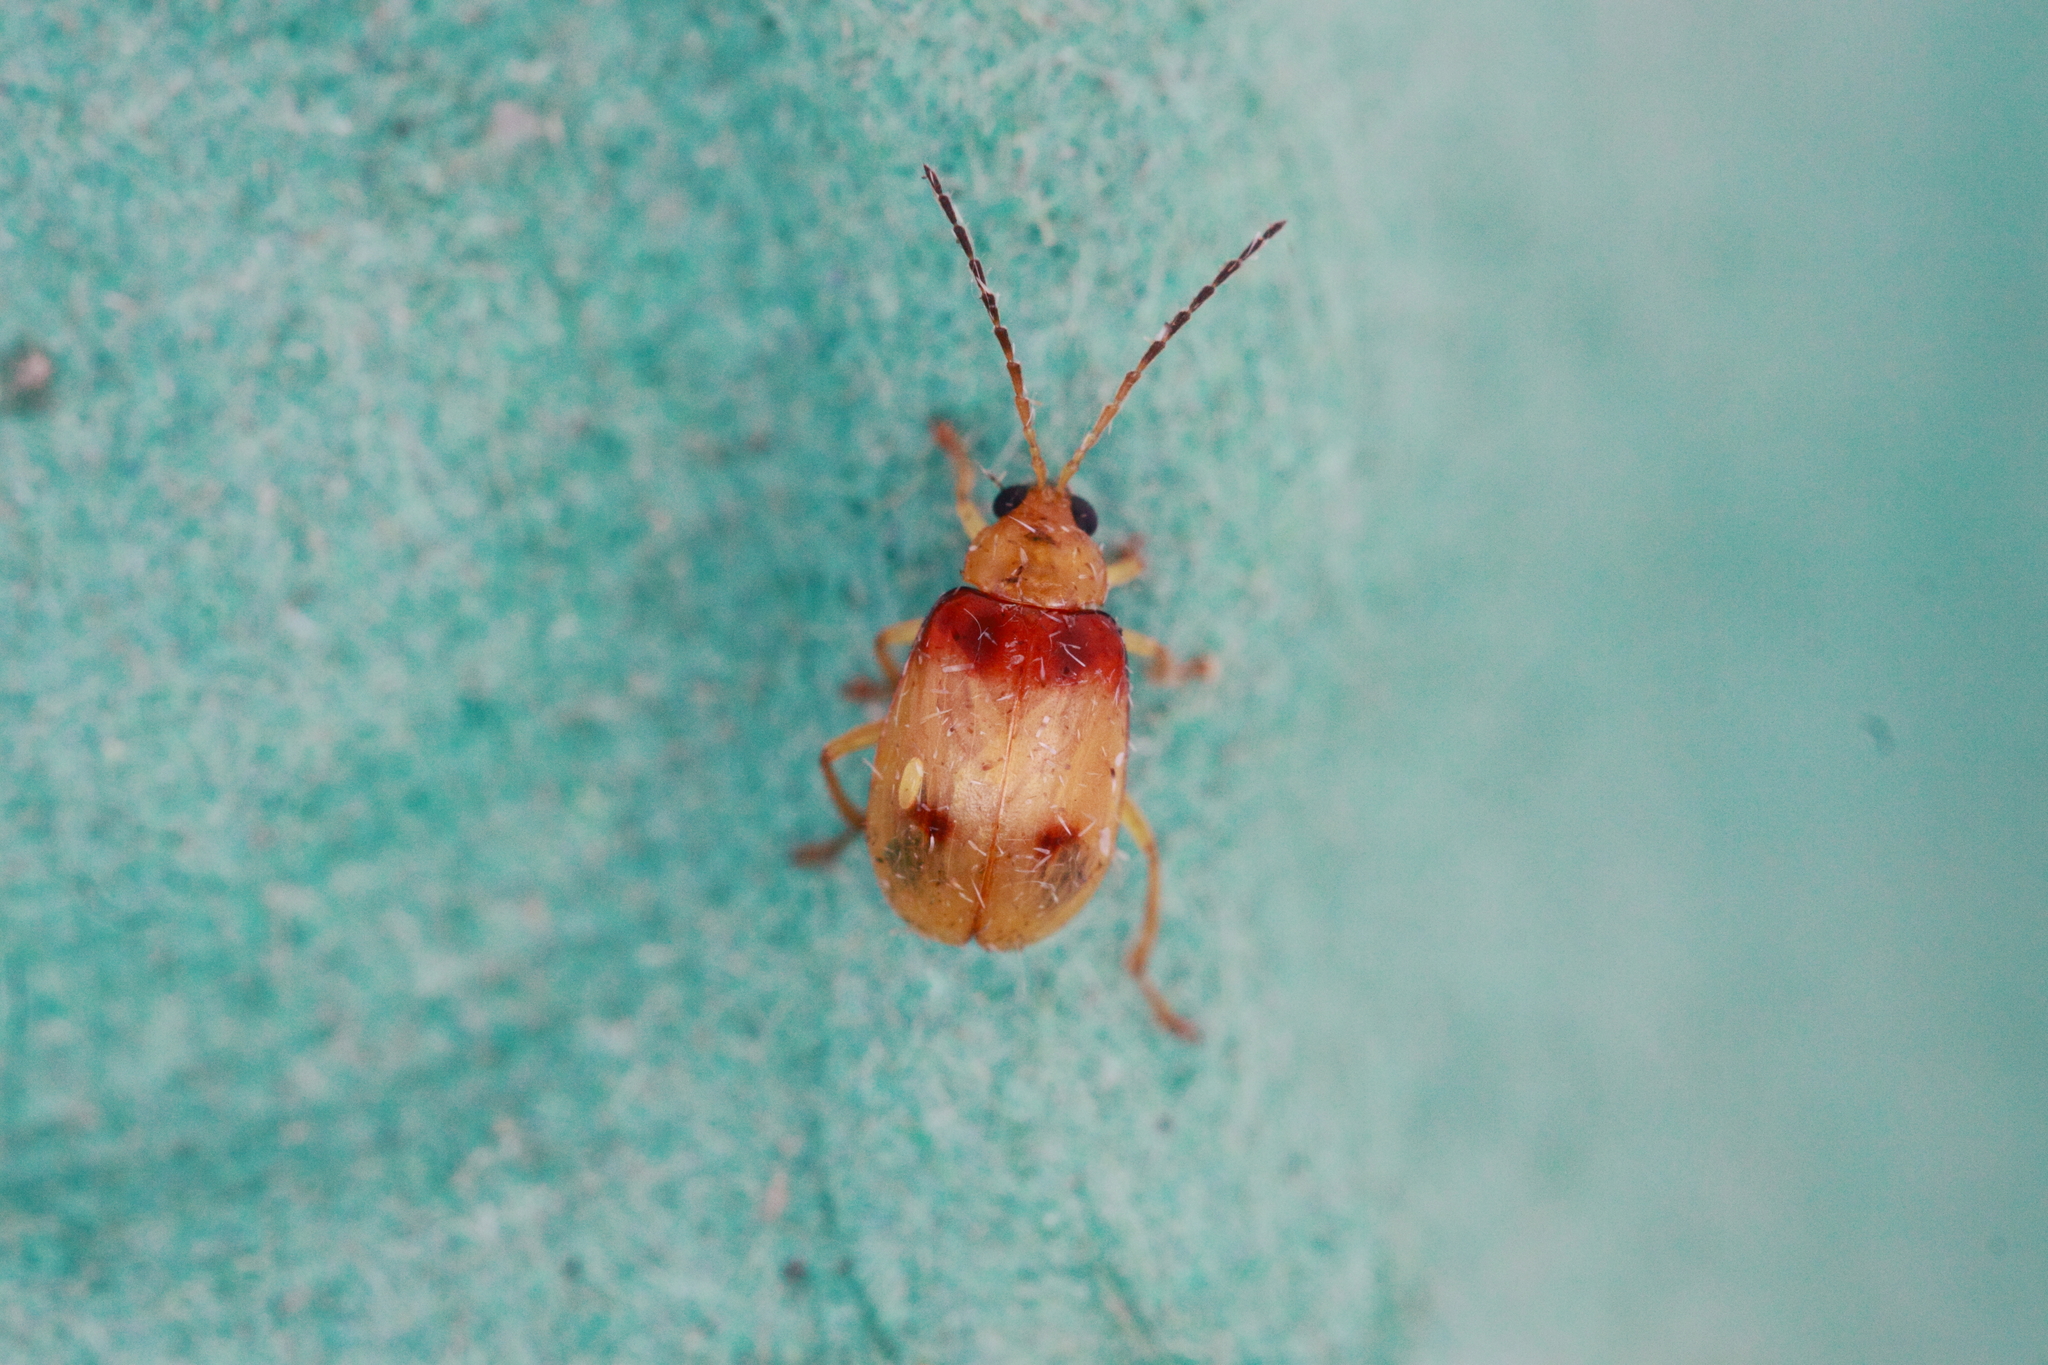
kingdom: Animalia
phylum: Arthropoda
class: Insecta
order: Coleoptera
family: Chrysomelidae
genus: Monolepta
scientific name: Monolepta
